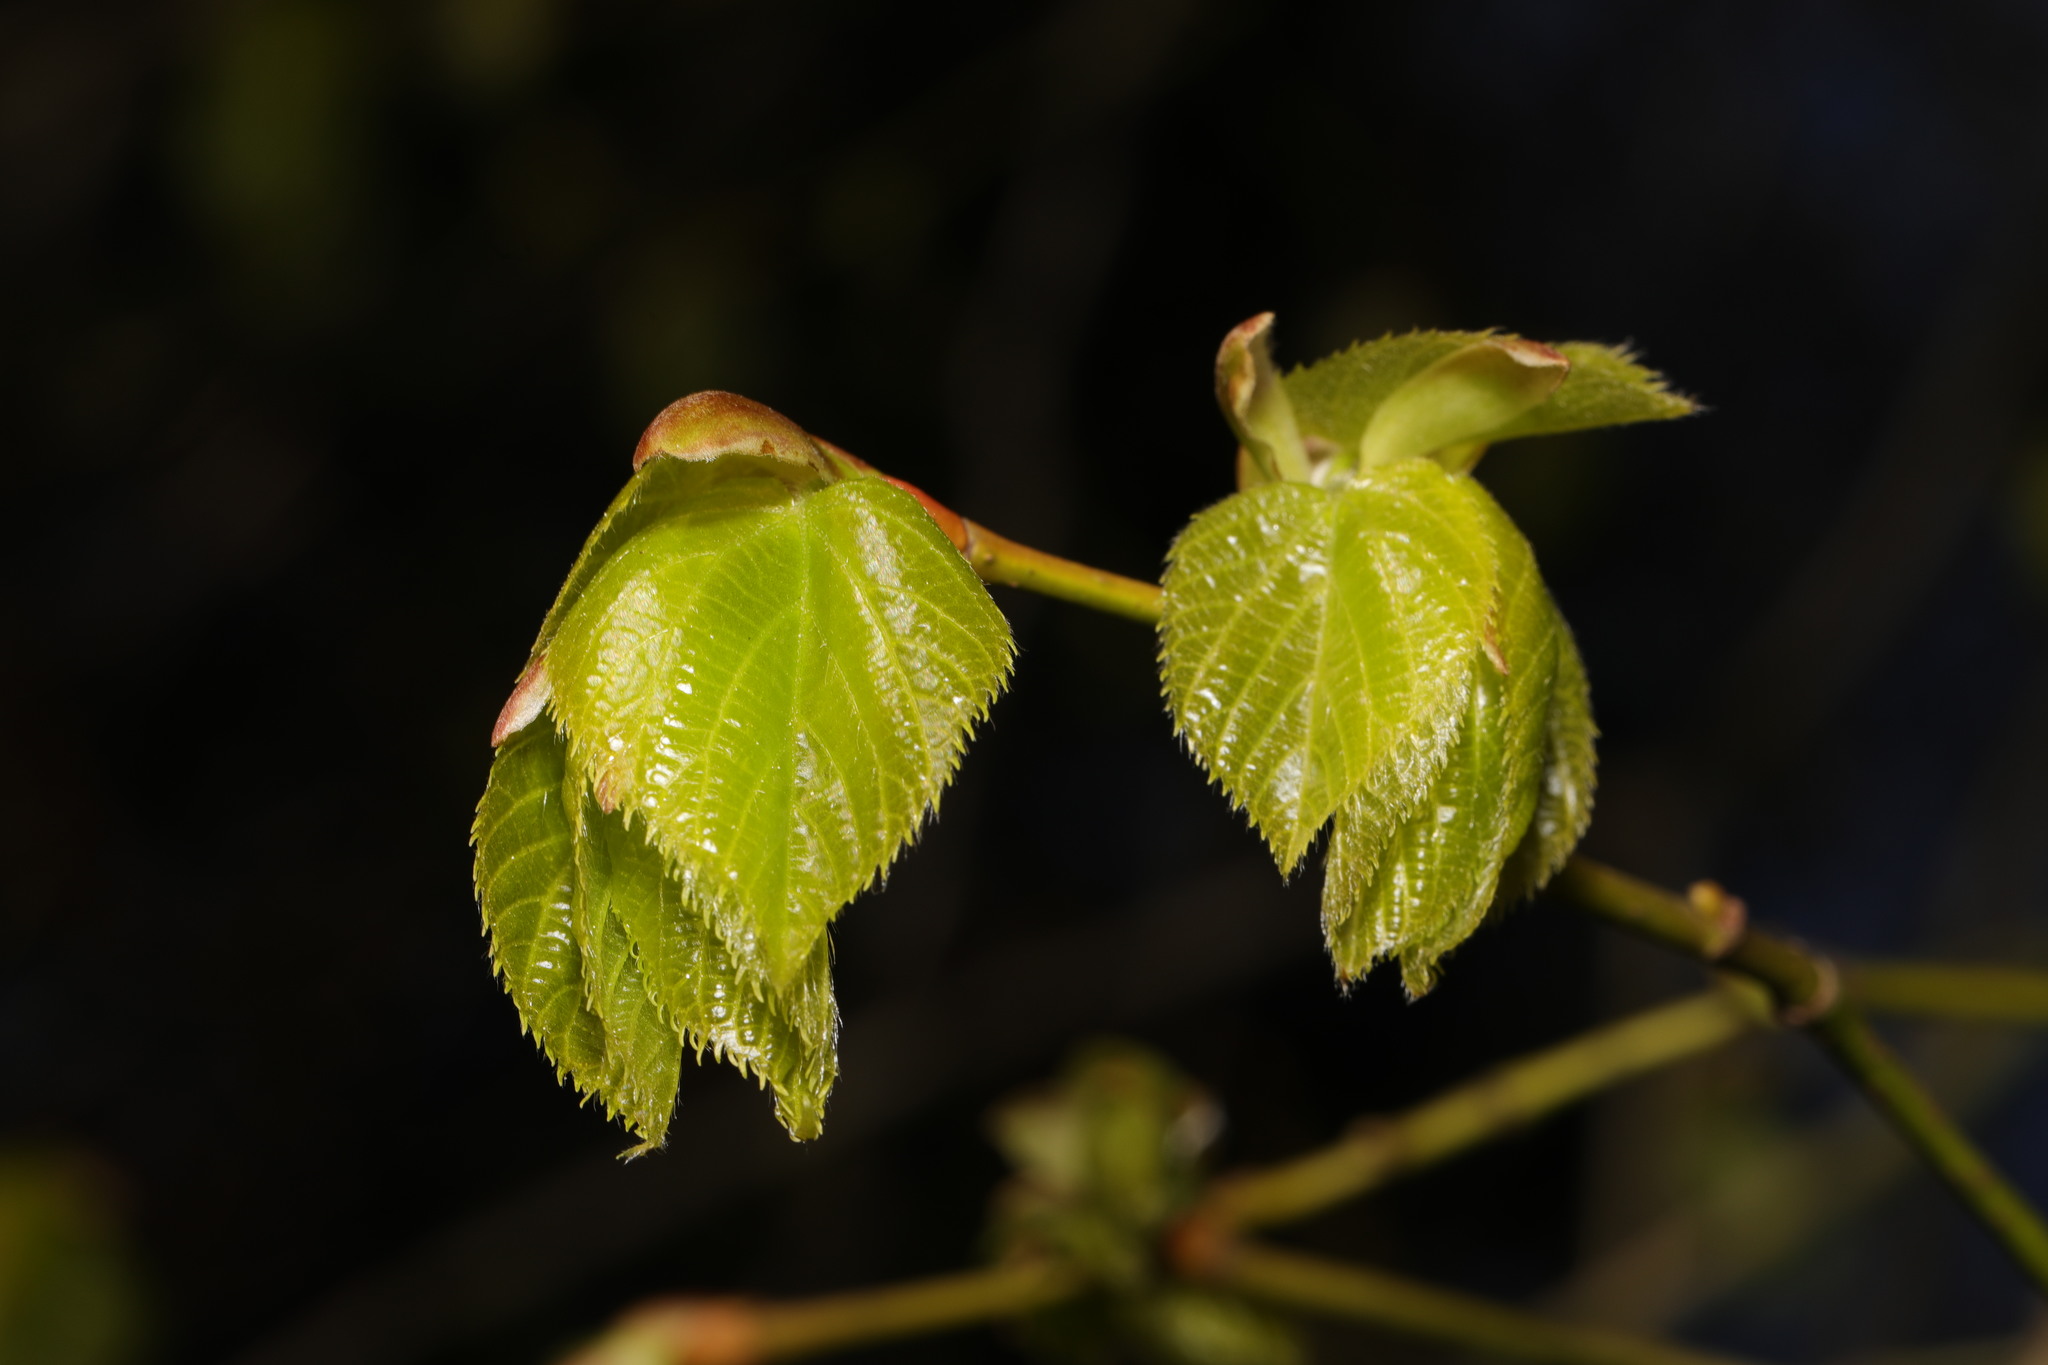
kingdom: Plantae
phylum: Tracheophyta
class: Magnoliopsida
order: Malvales
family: Malvaceae
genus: Tilia
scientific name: Tilia europaea
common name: European linden
